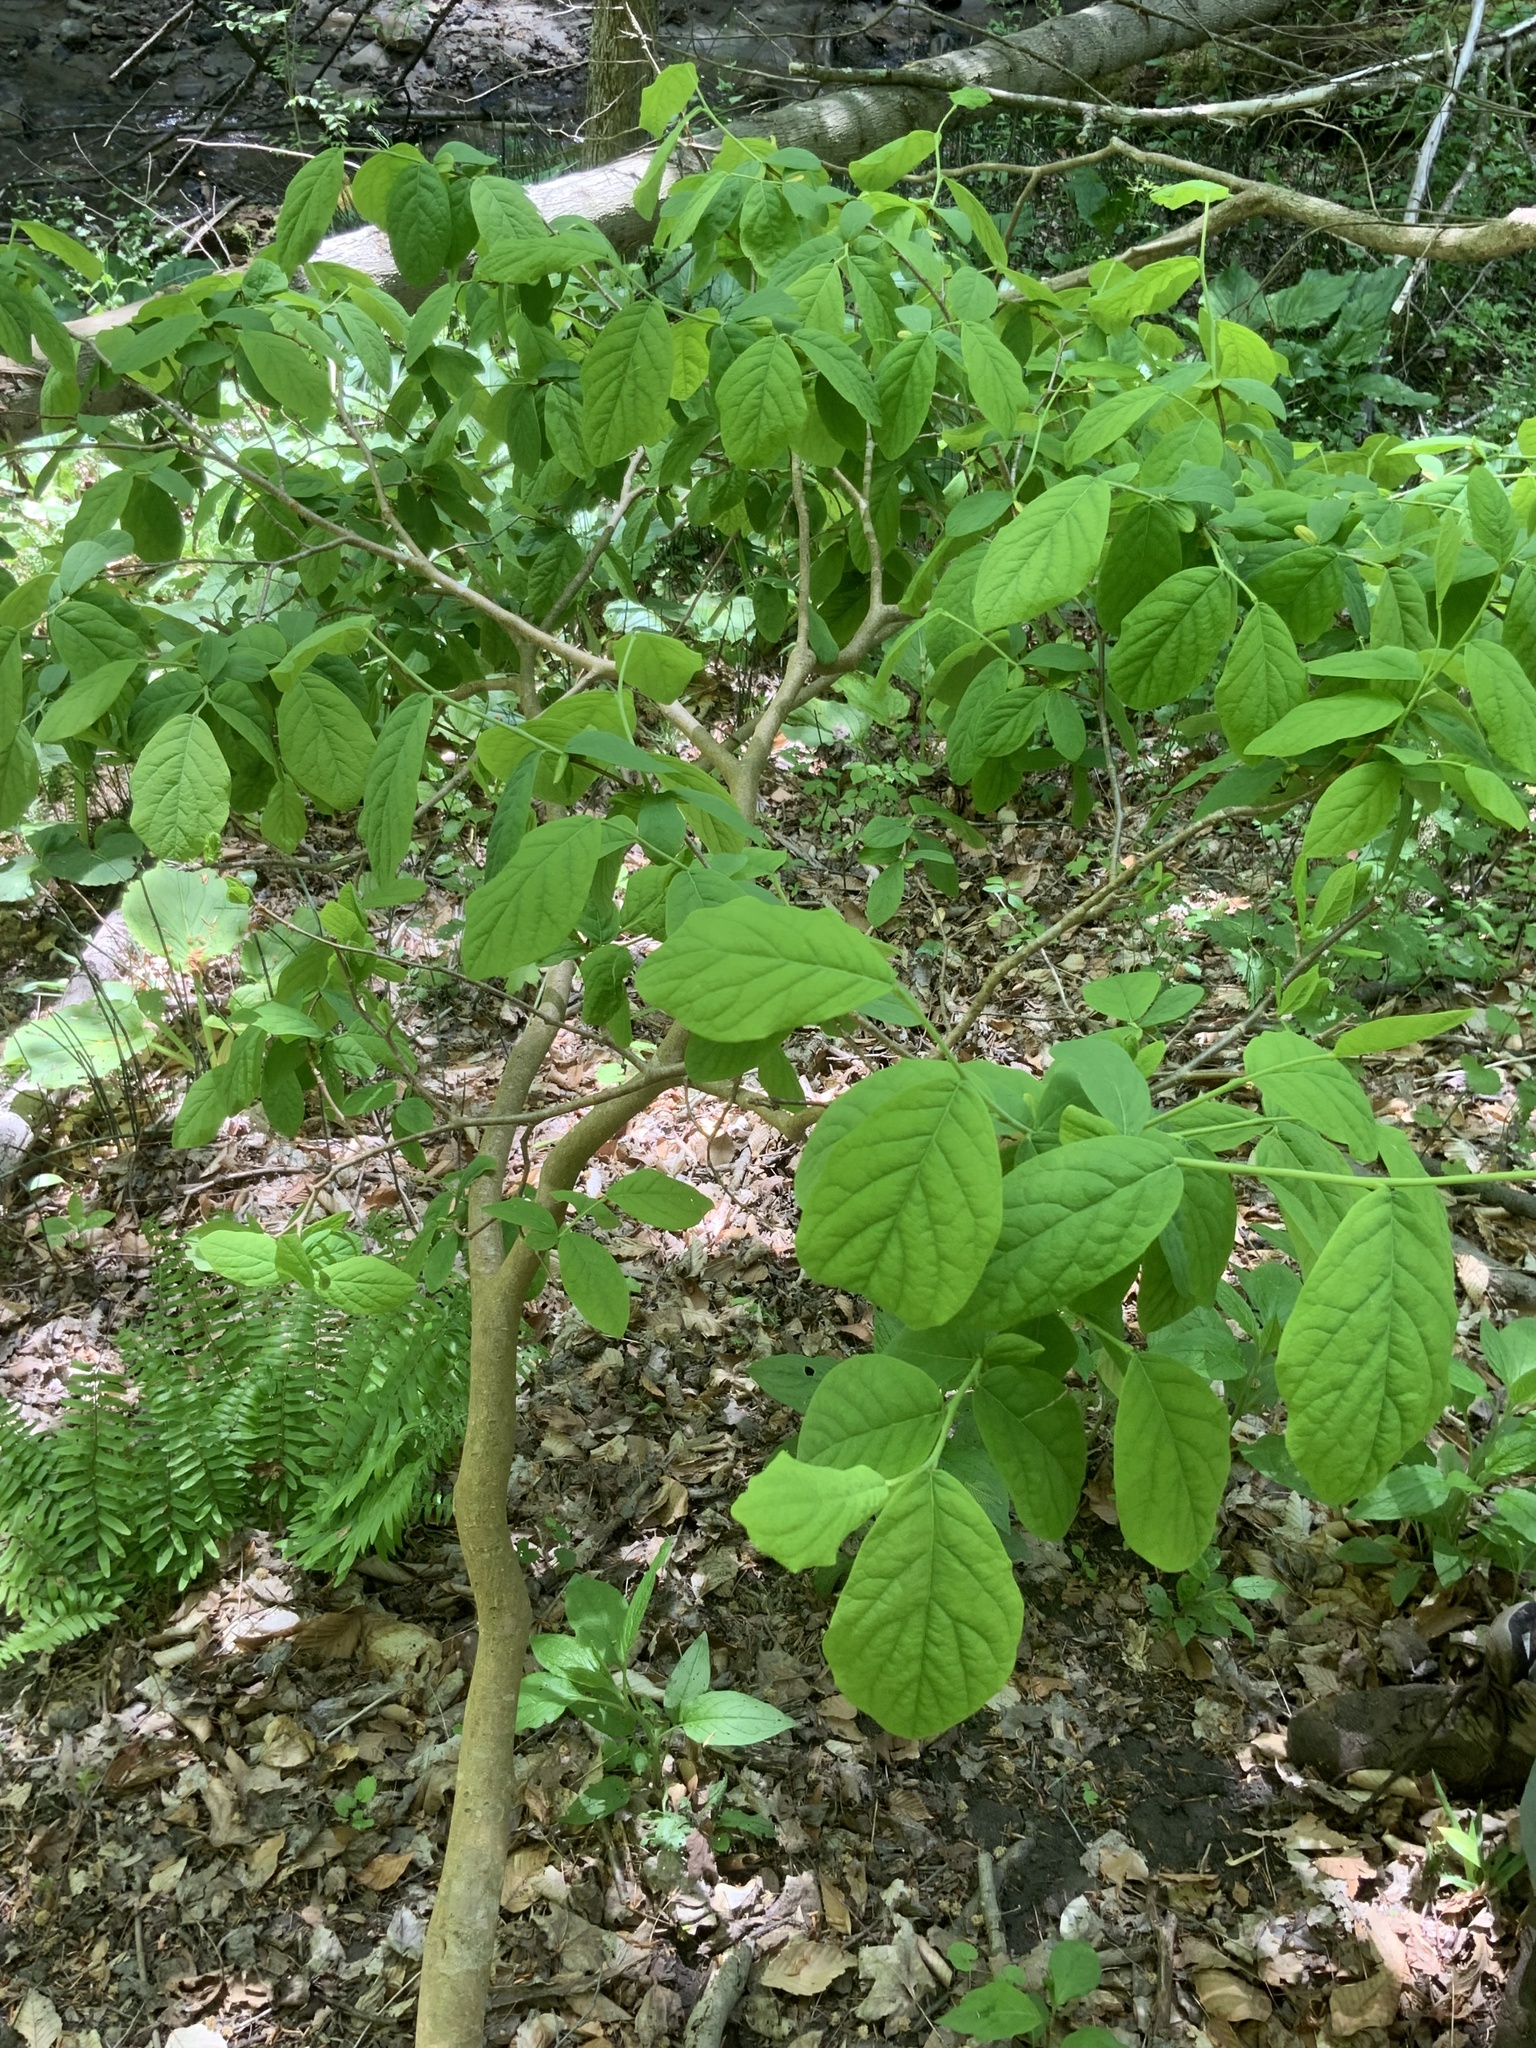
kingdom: Plantae
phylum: Tracheophyta
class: Magnoliopsida
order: Malvales
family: Thymelaeaceae
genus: Dirca
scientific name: Dirca palustris
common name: Leatherwood
